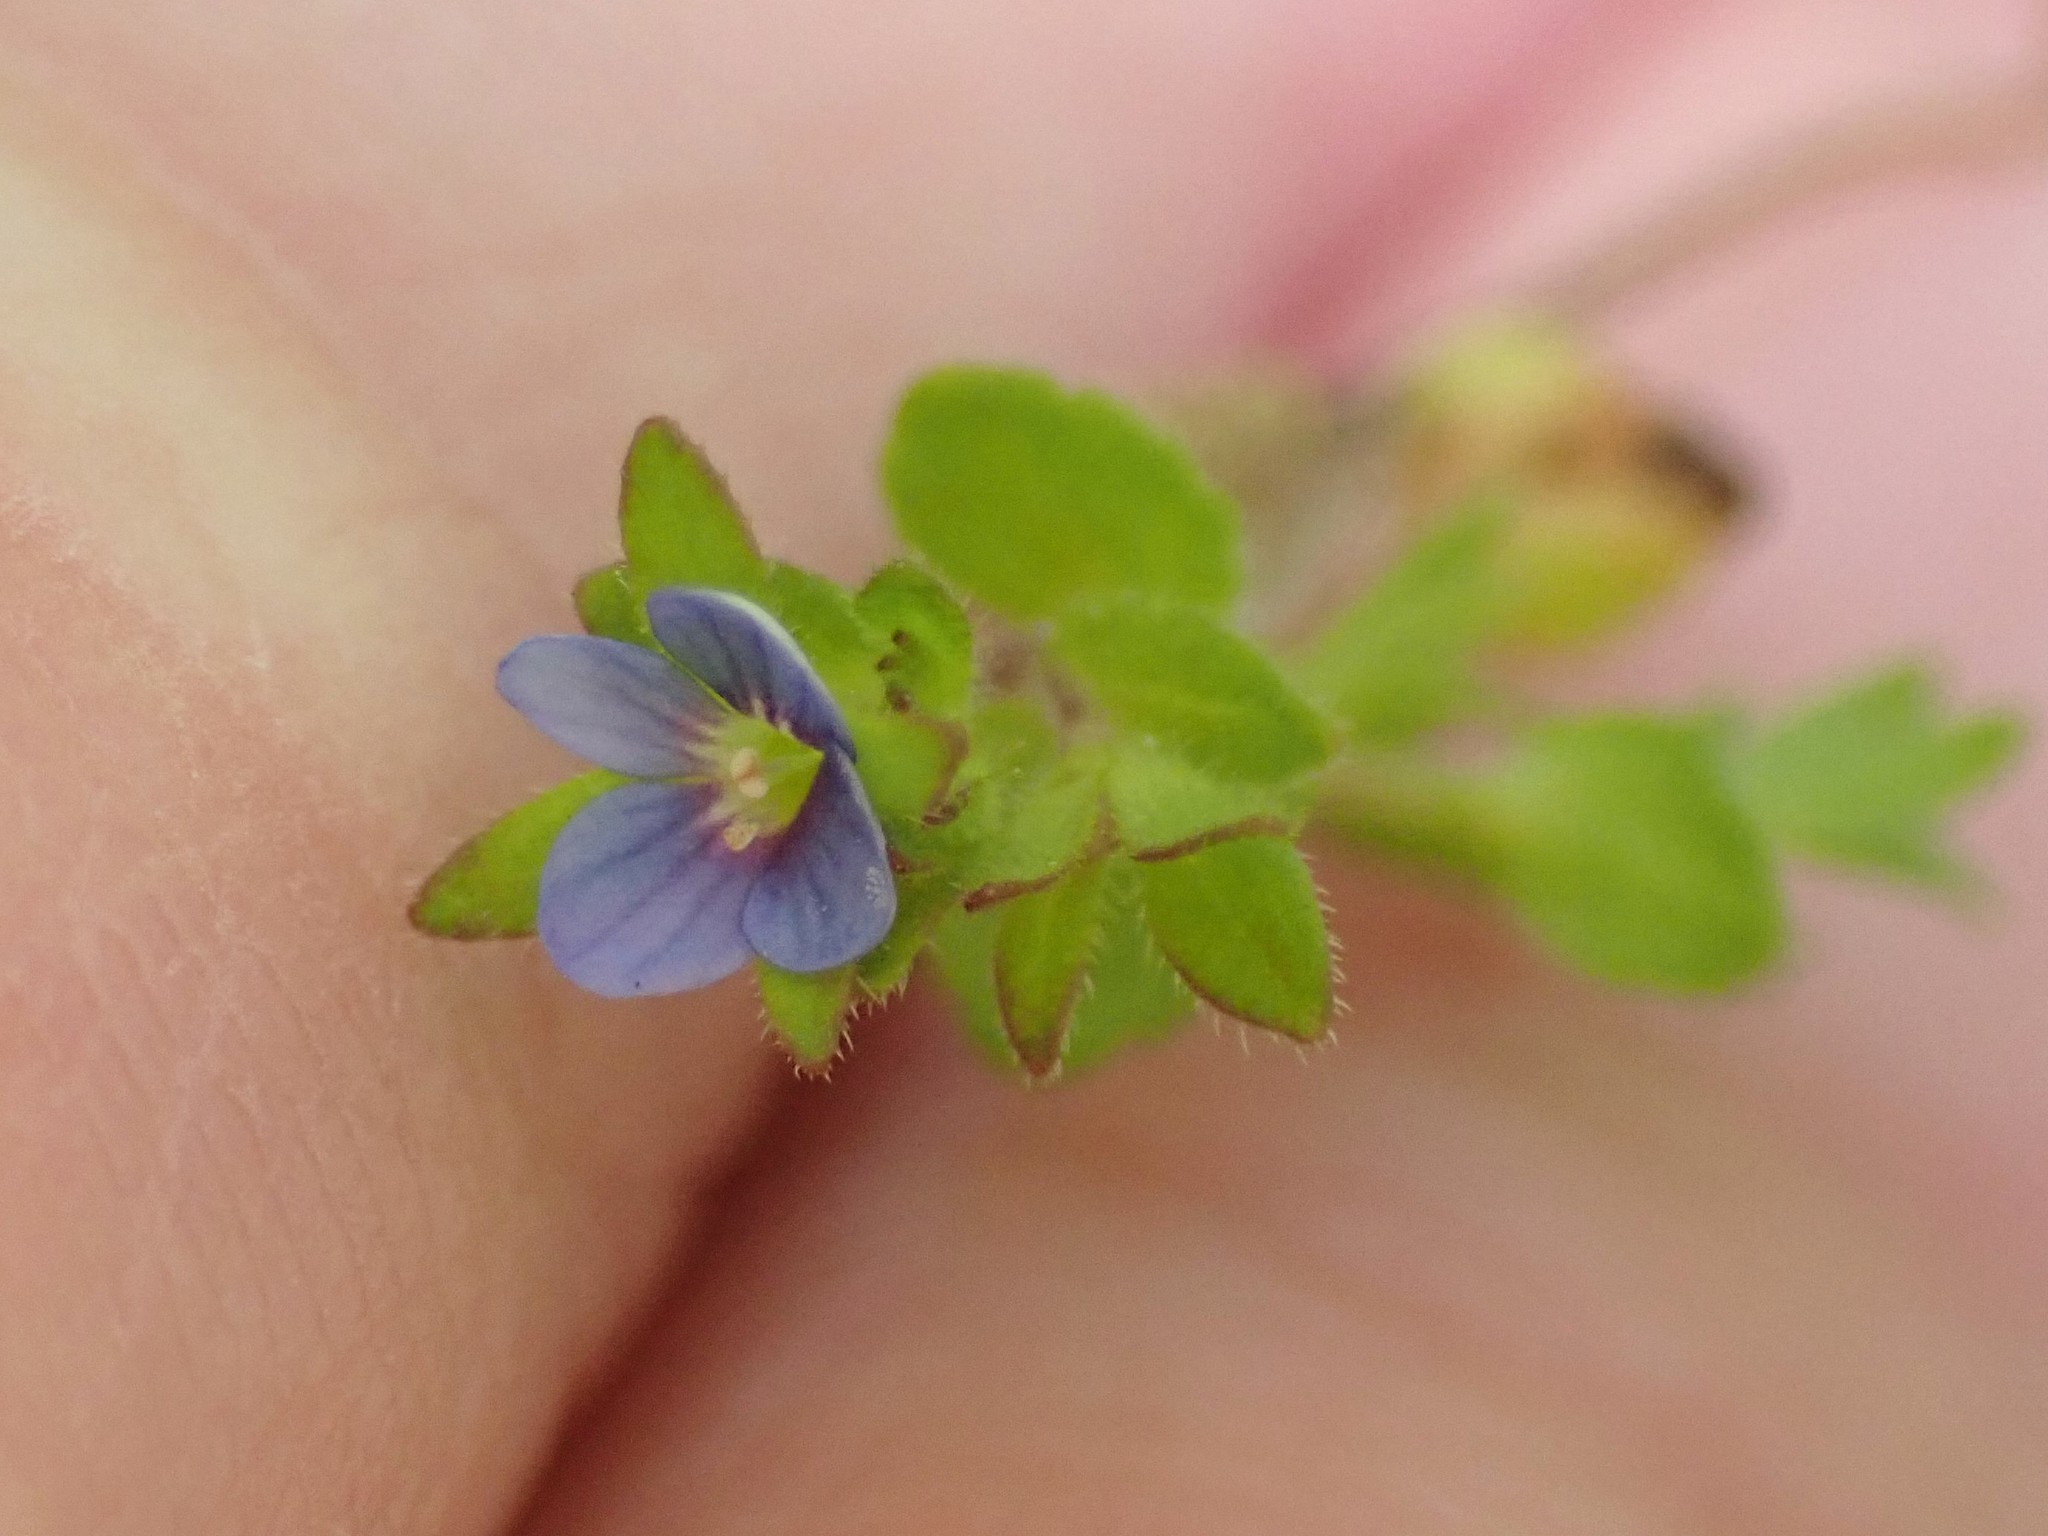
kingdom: Plantae
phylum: Tracheophyta
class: Magnoliopsida
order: Lamiales
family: Plantaginaceae
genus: Veronica
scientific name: Veronica arvensis
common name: Corn speedwell
